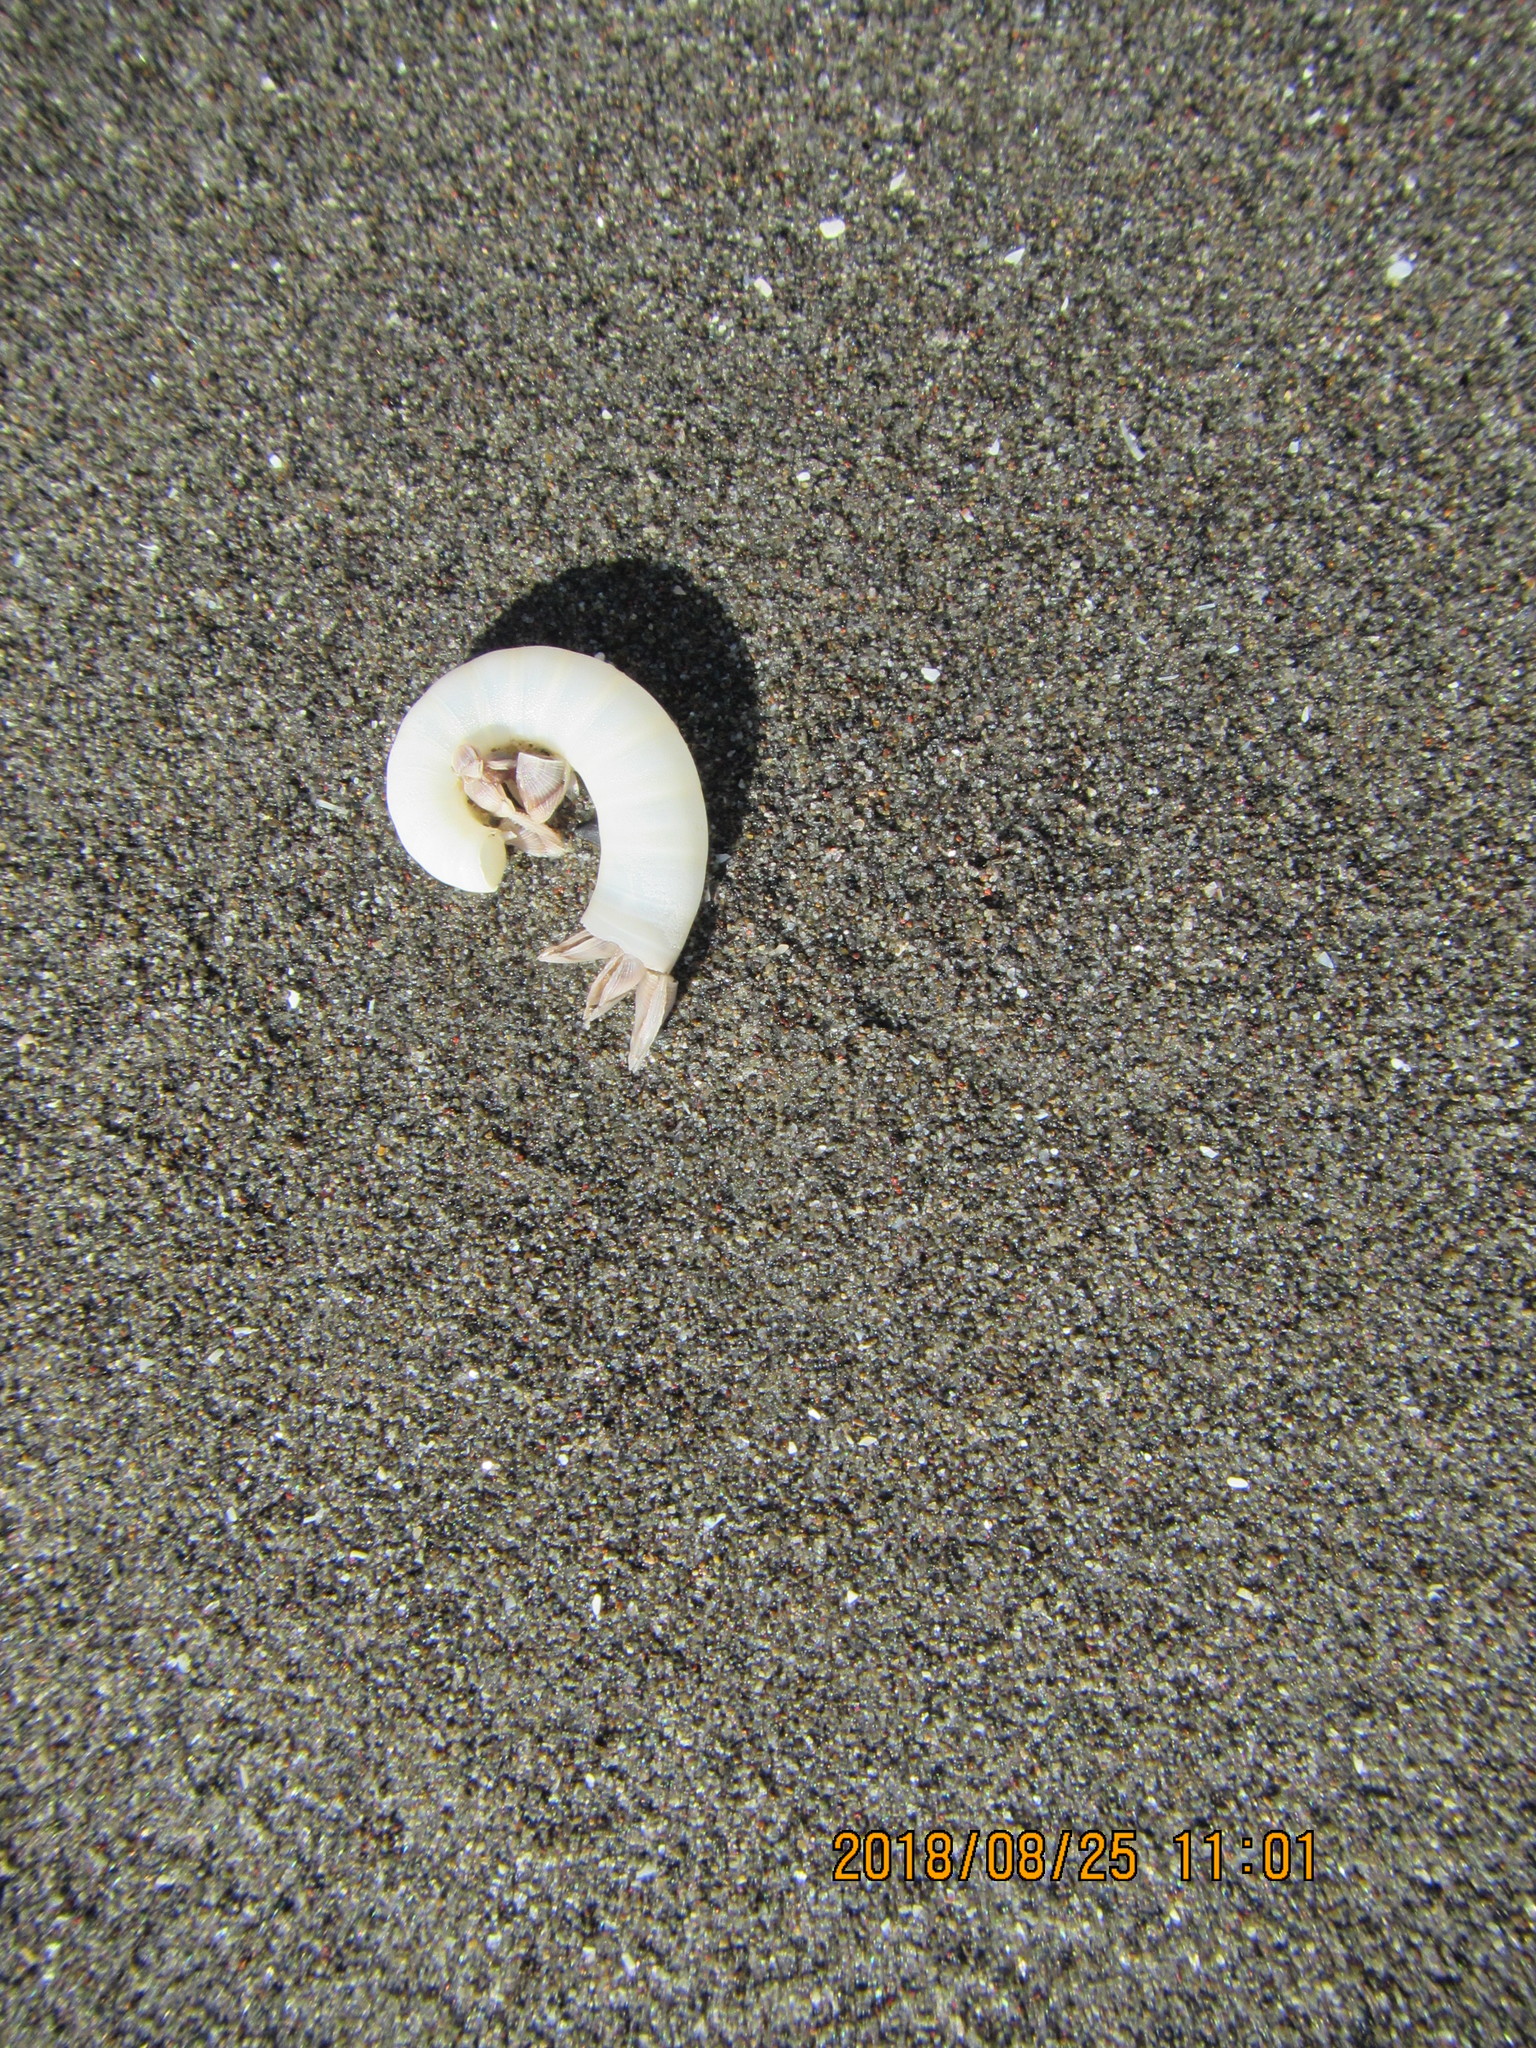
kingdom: Animalia
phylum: Arthropoda
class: Maxillopoda
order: Pedunculata
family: Lepadidae
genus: Lepas
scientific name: Lepas pectinata
